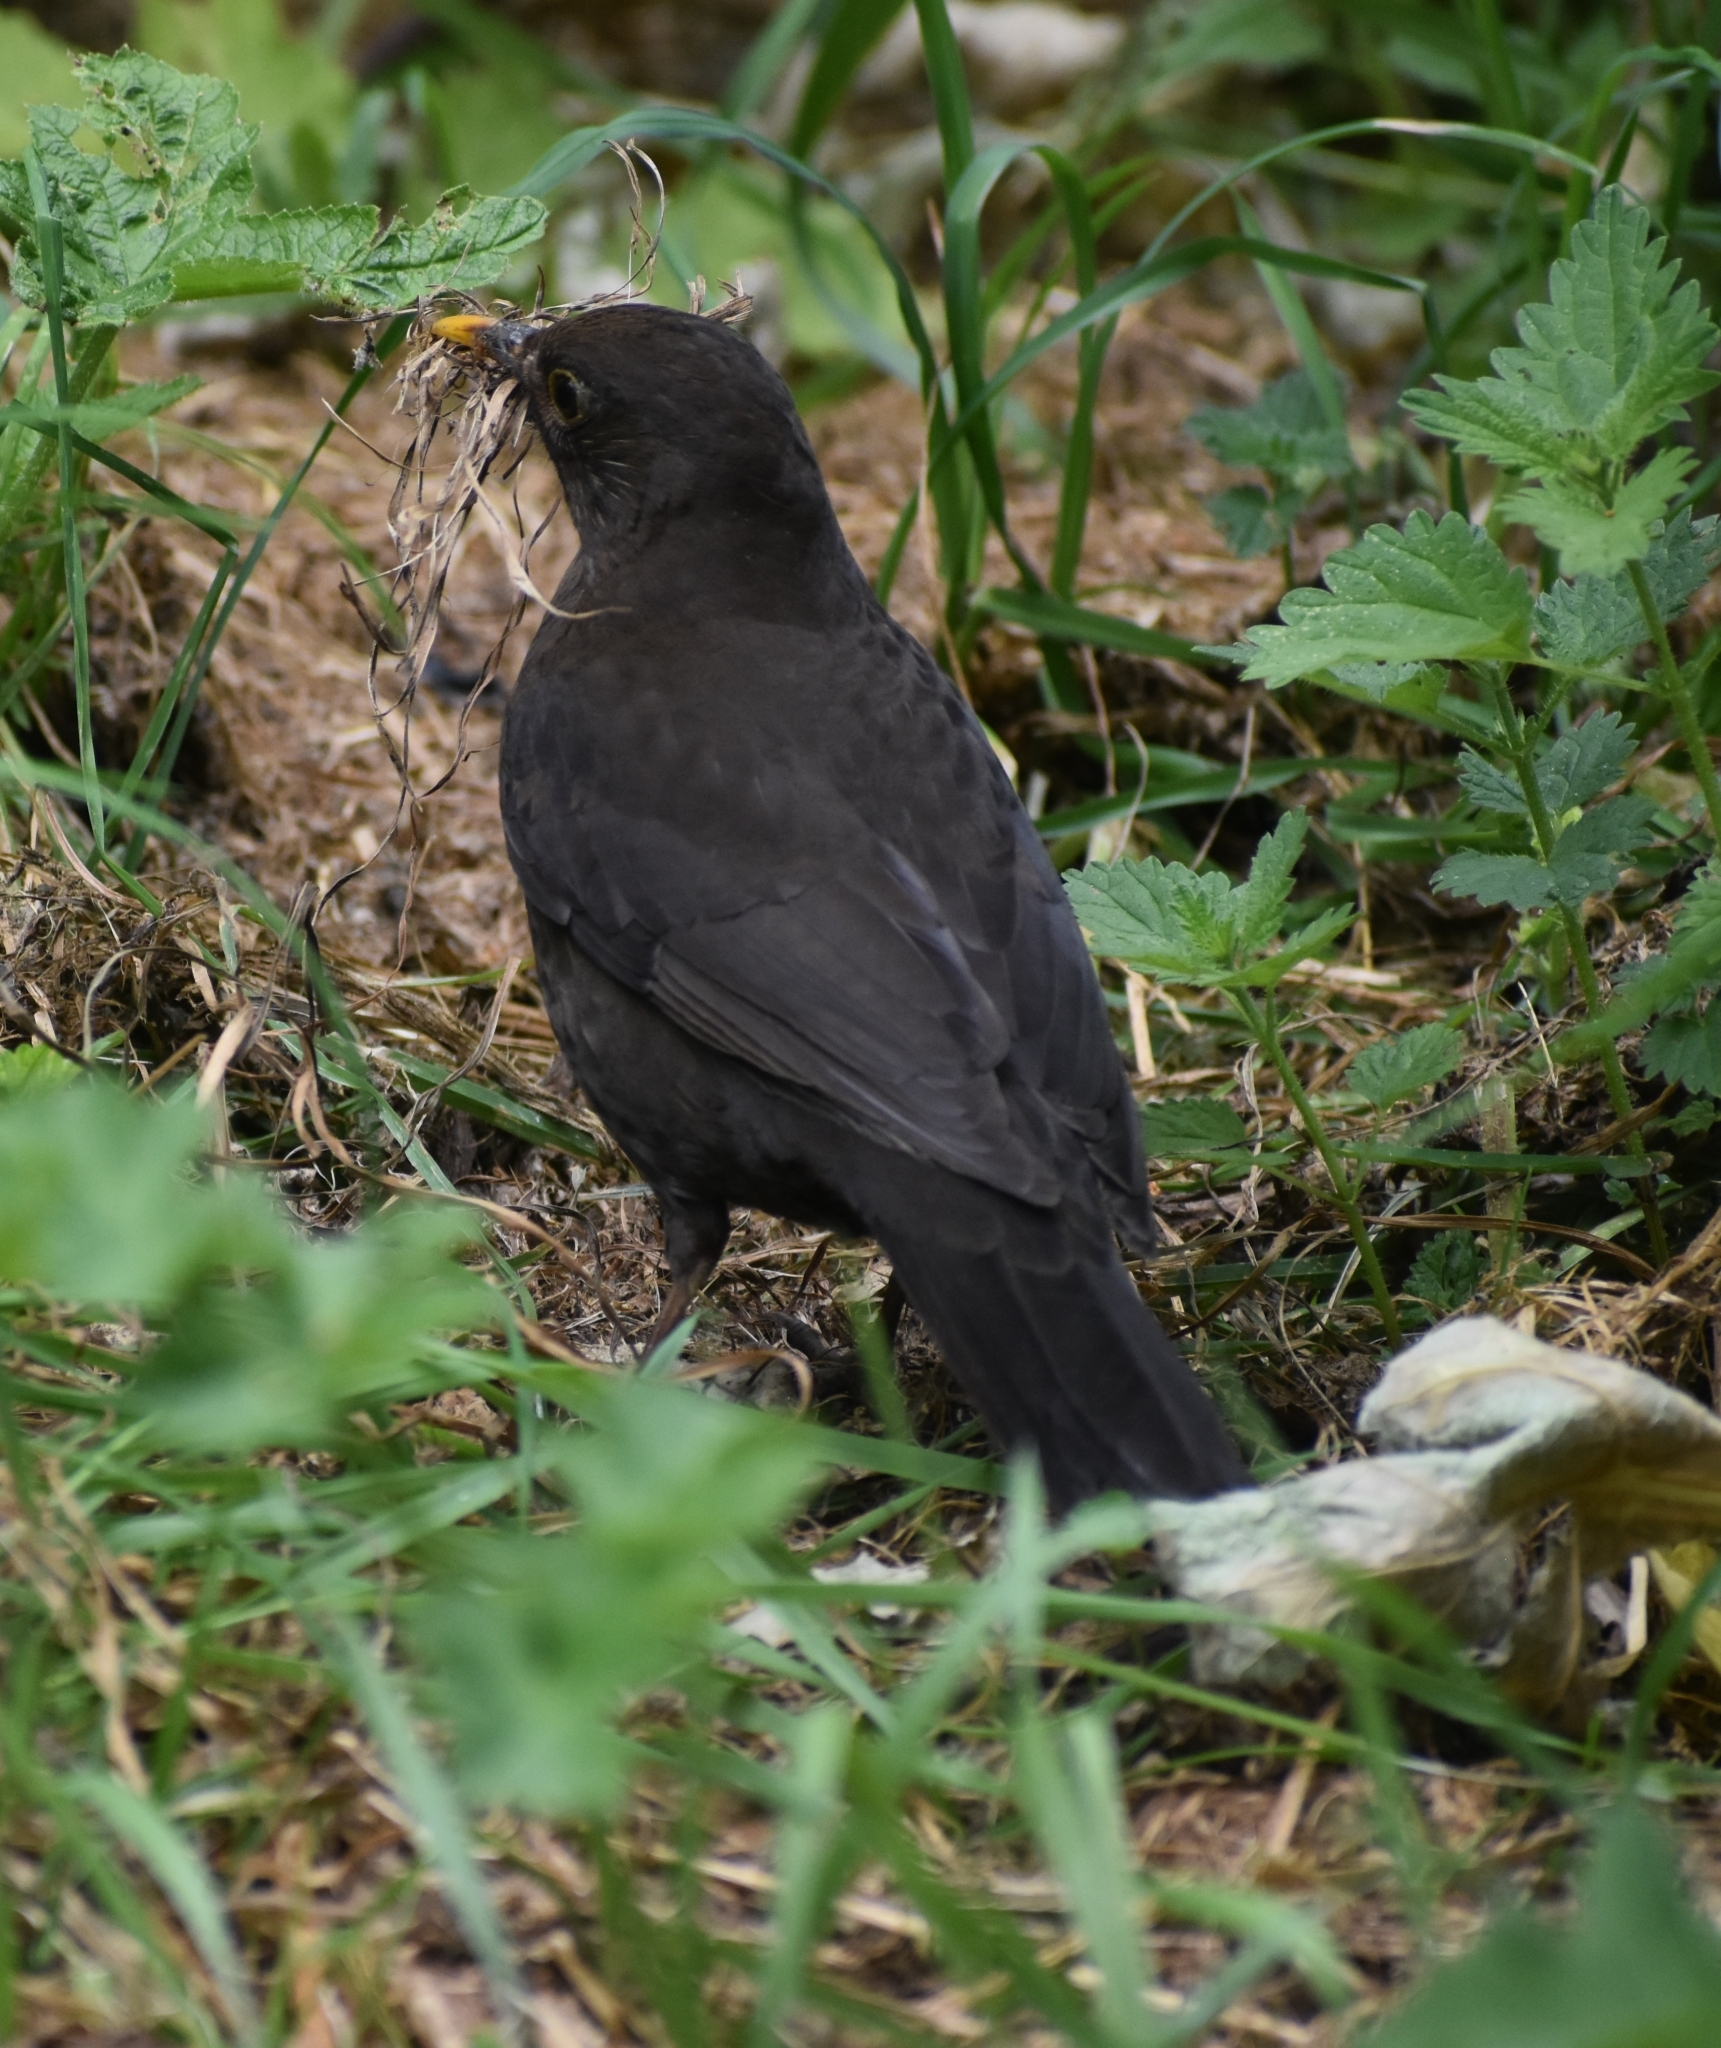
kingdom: Animalia
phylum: Chordata
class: Aves
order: Passeriformes
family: Turdidae
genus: Turdus
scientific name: Turdus merula
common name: Common blackbird
